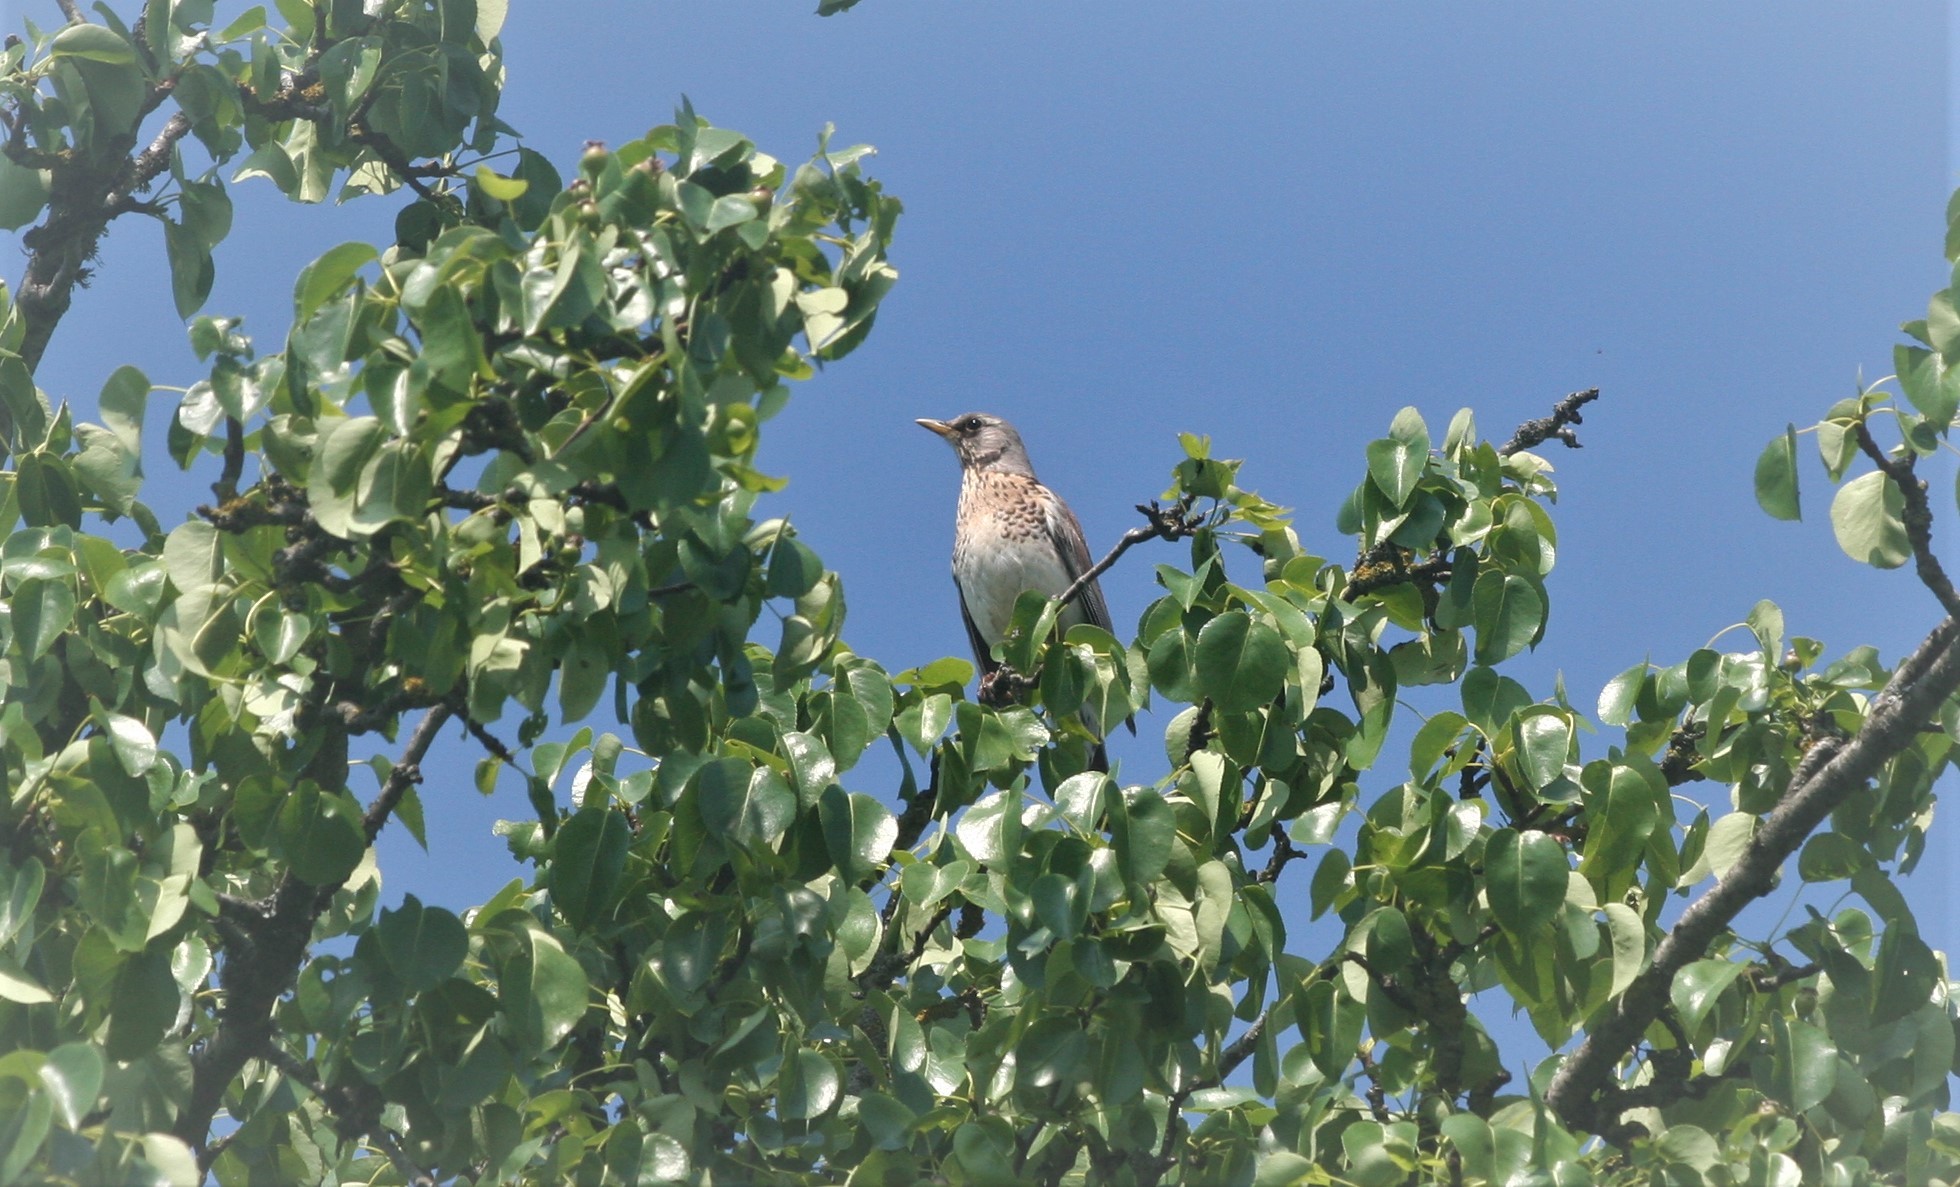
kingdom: Animalia
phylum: Chordata
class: Aves
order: Passeriformes
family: Turdidae
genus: Turdus
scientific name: Turdus pilaris
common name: Fieldfare
